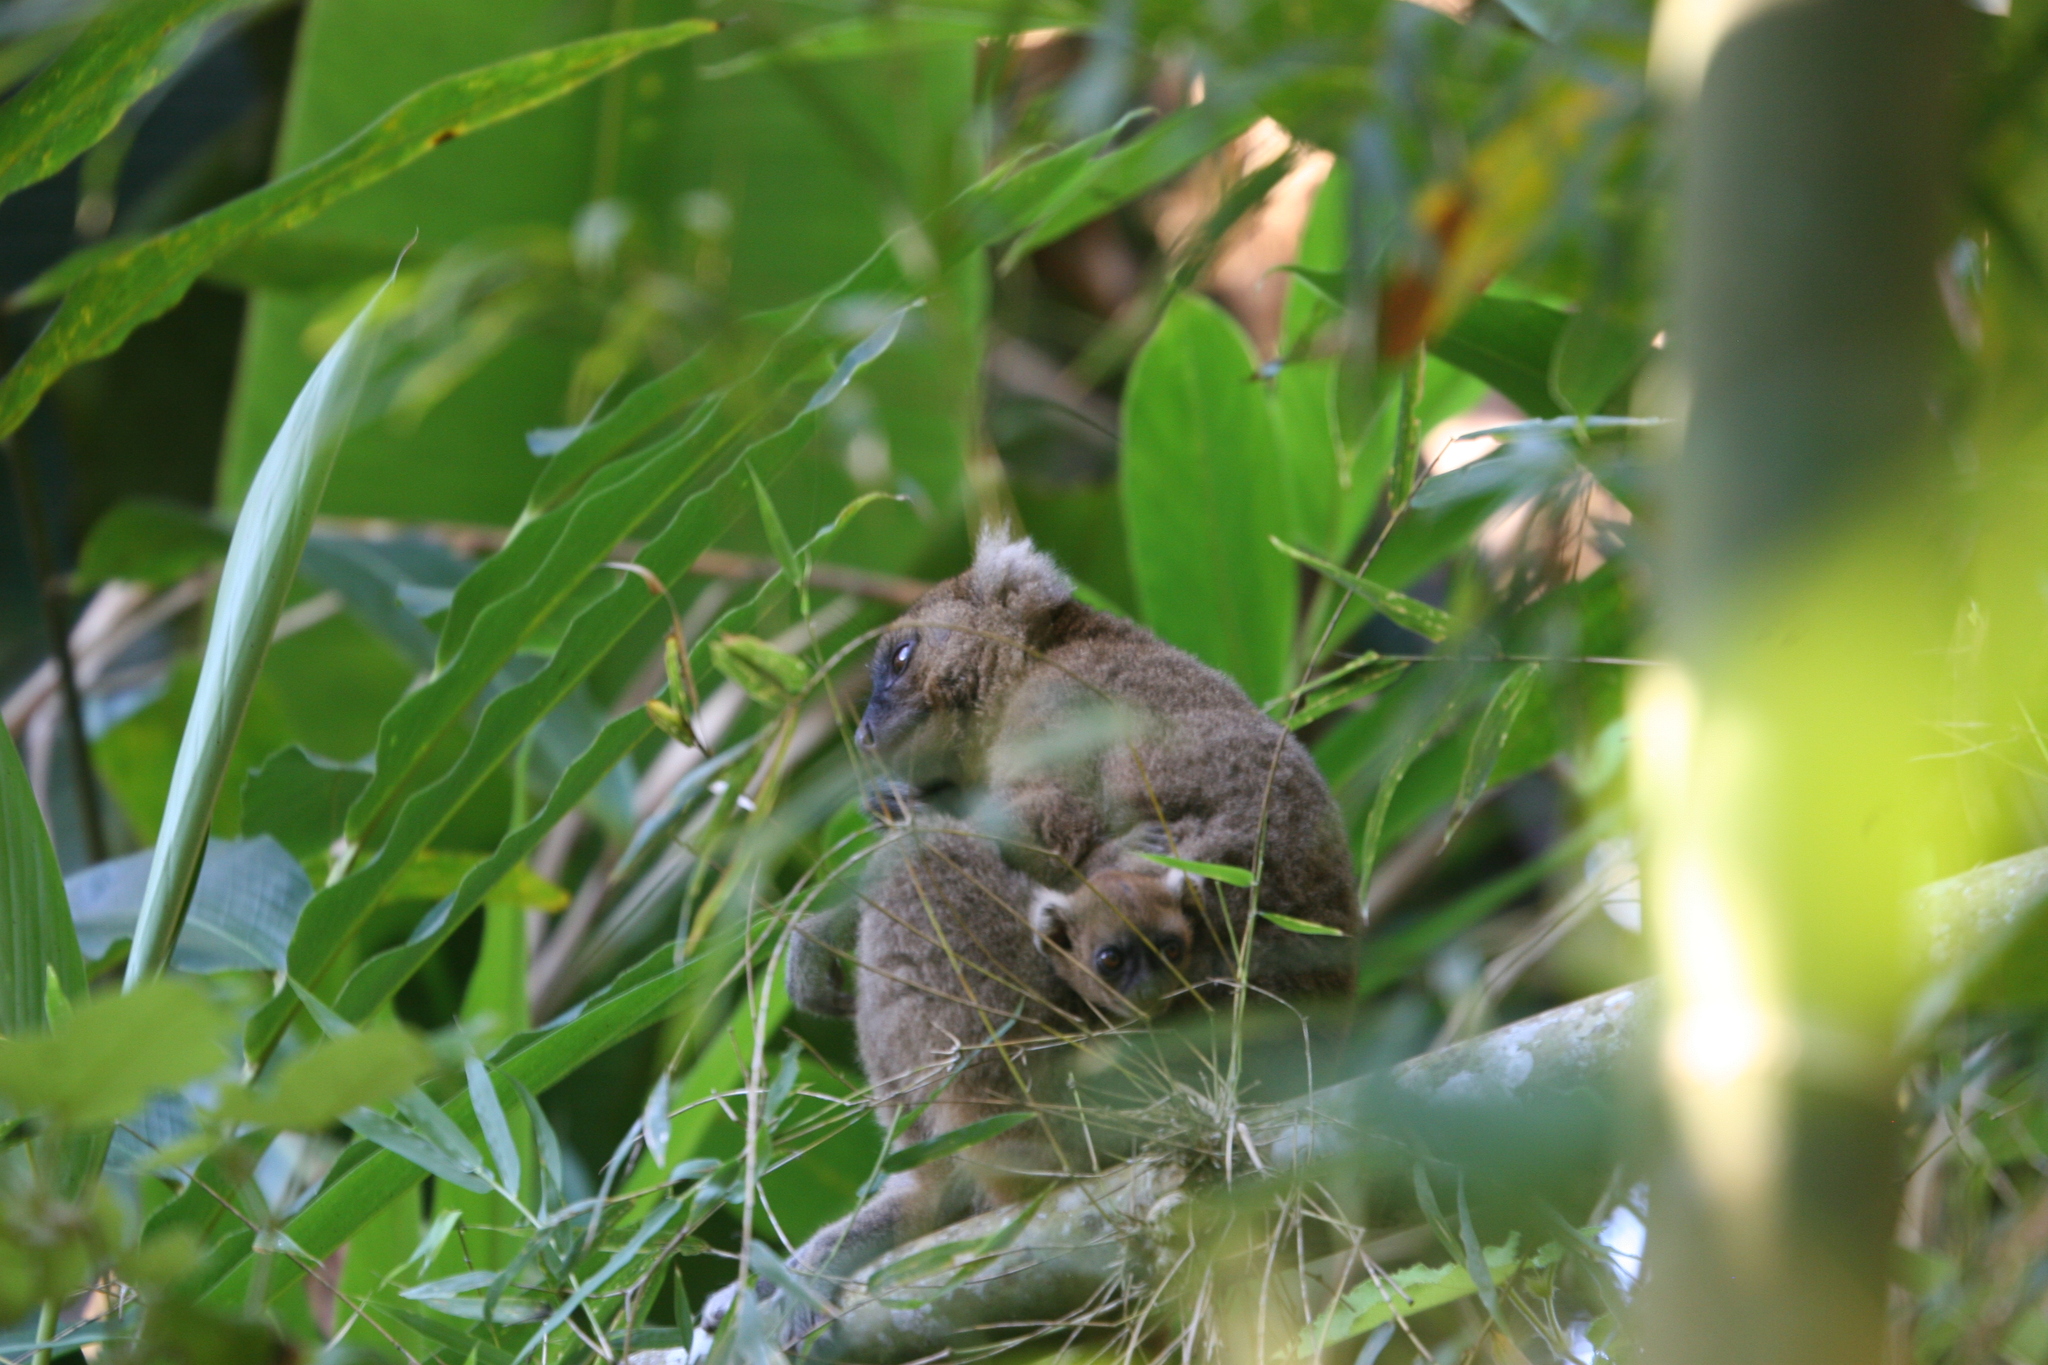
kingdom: Animalia
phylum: Chordata
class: Mammalia
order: Primates
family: Lemuridae
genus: Prolemur
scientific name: Prolemur simus
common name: Greater bamboo lemur
